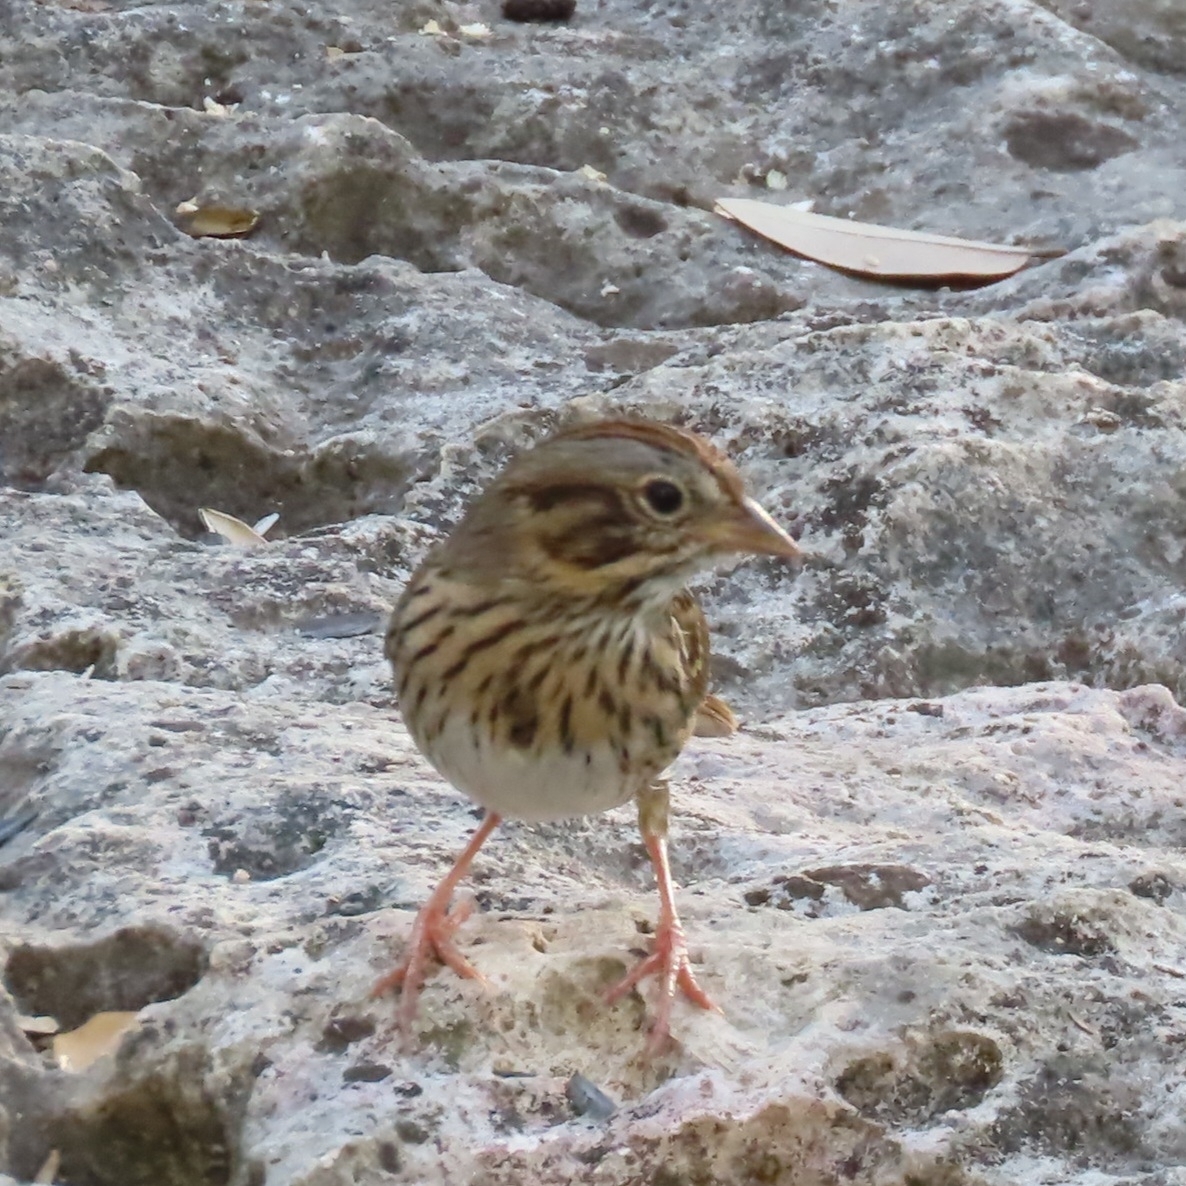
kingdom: Animalia
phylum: Chordata
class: Aves
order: Passeriformes
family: Passerellidae
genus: Melospiza
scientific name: Melospiza lincolnii
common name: Lincoln's sparrow
